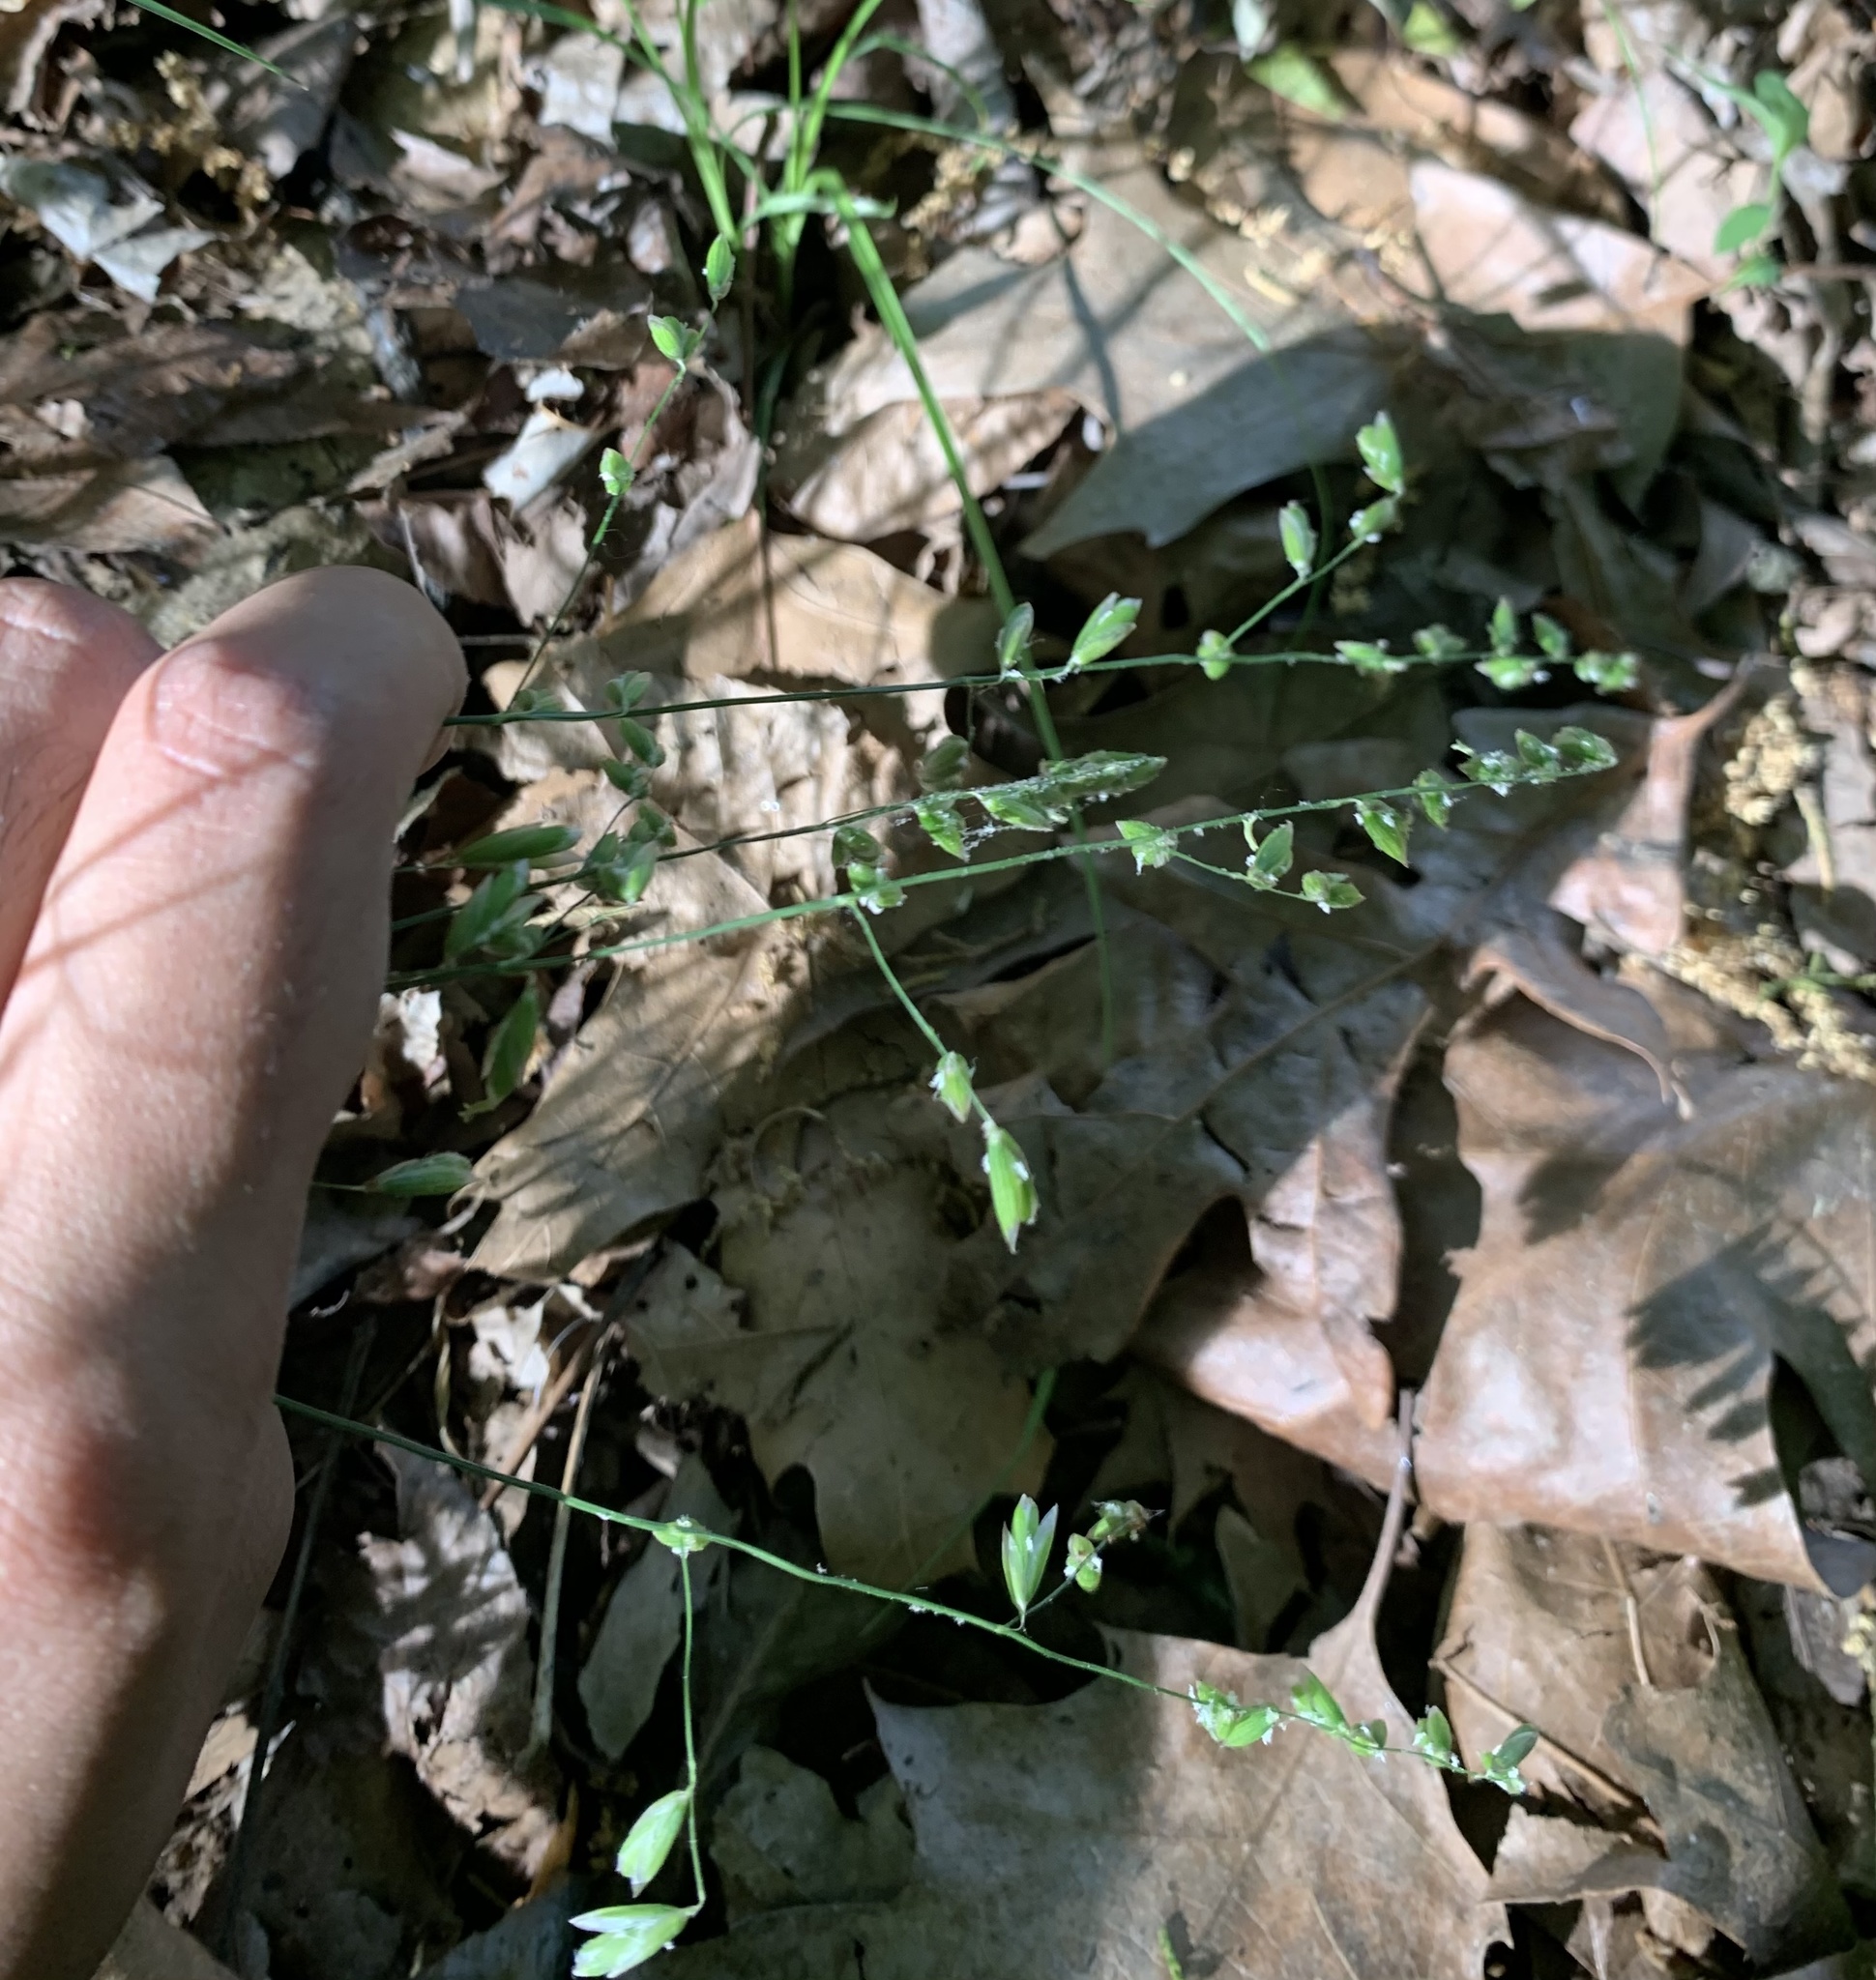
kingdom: Plantae
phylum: Tracheophyta
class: Liliopsida
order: Poales
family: Poaceae
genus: Melica
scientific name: Melica mutica
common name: Two-flower melic
